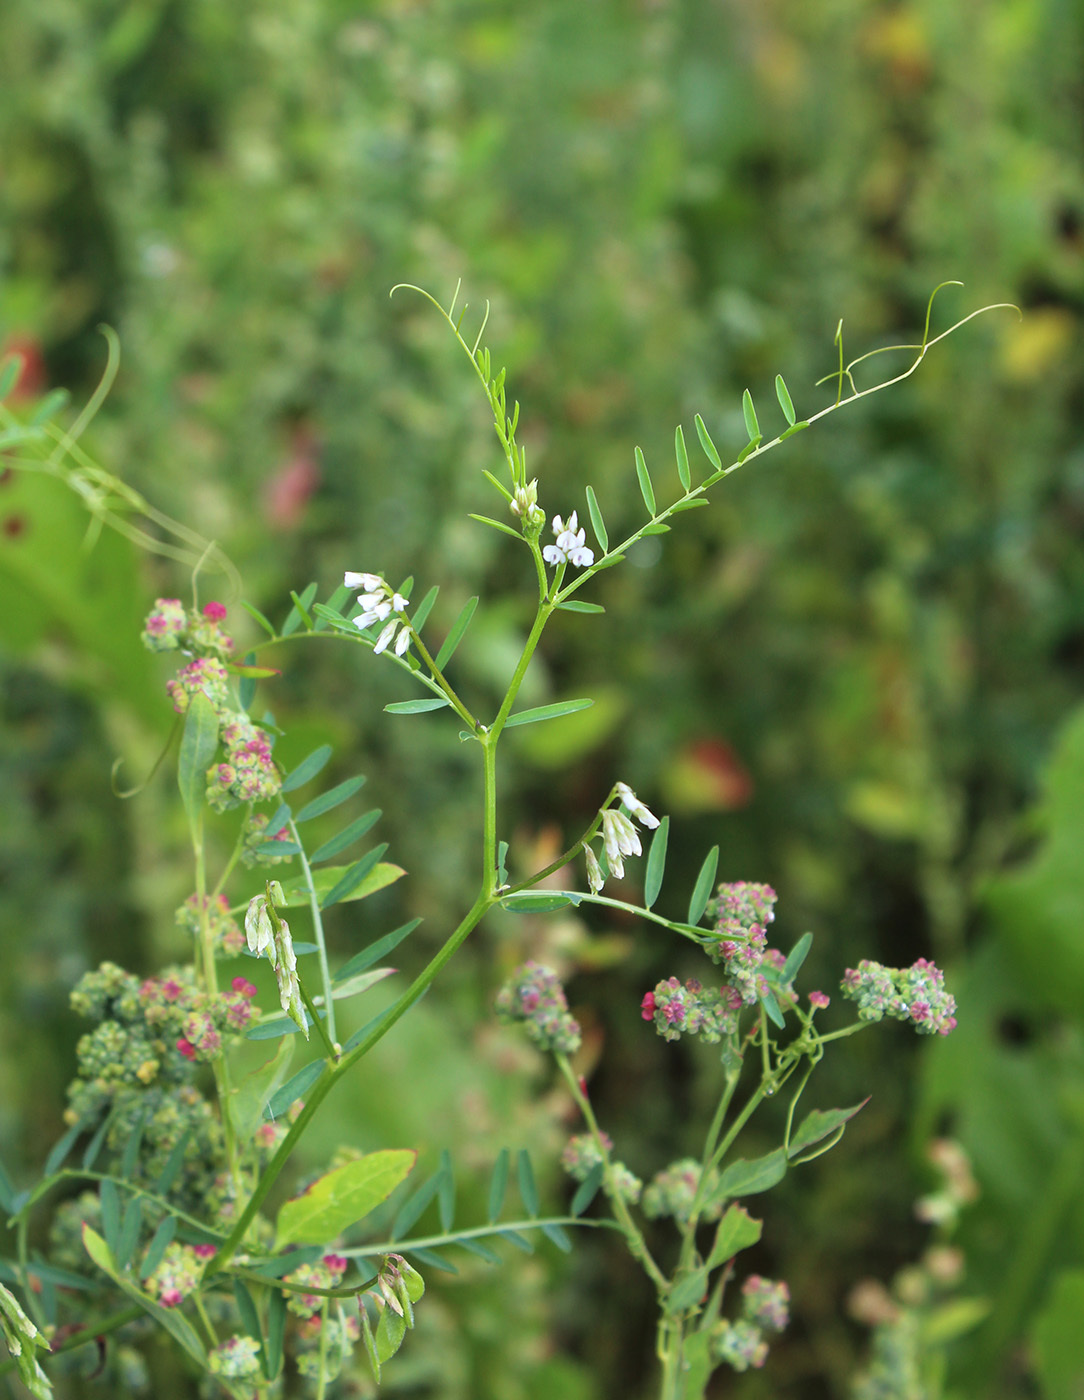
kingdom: Plantae
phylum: Tracheophyta
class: Magnoliopsida
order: Fabales
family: Fabaceae
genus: Vicia
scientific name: Vicia hirsuta
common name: Tiny vetch
